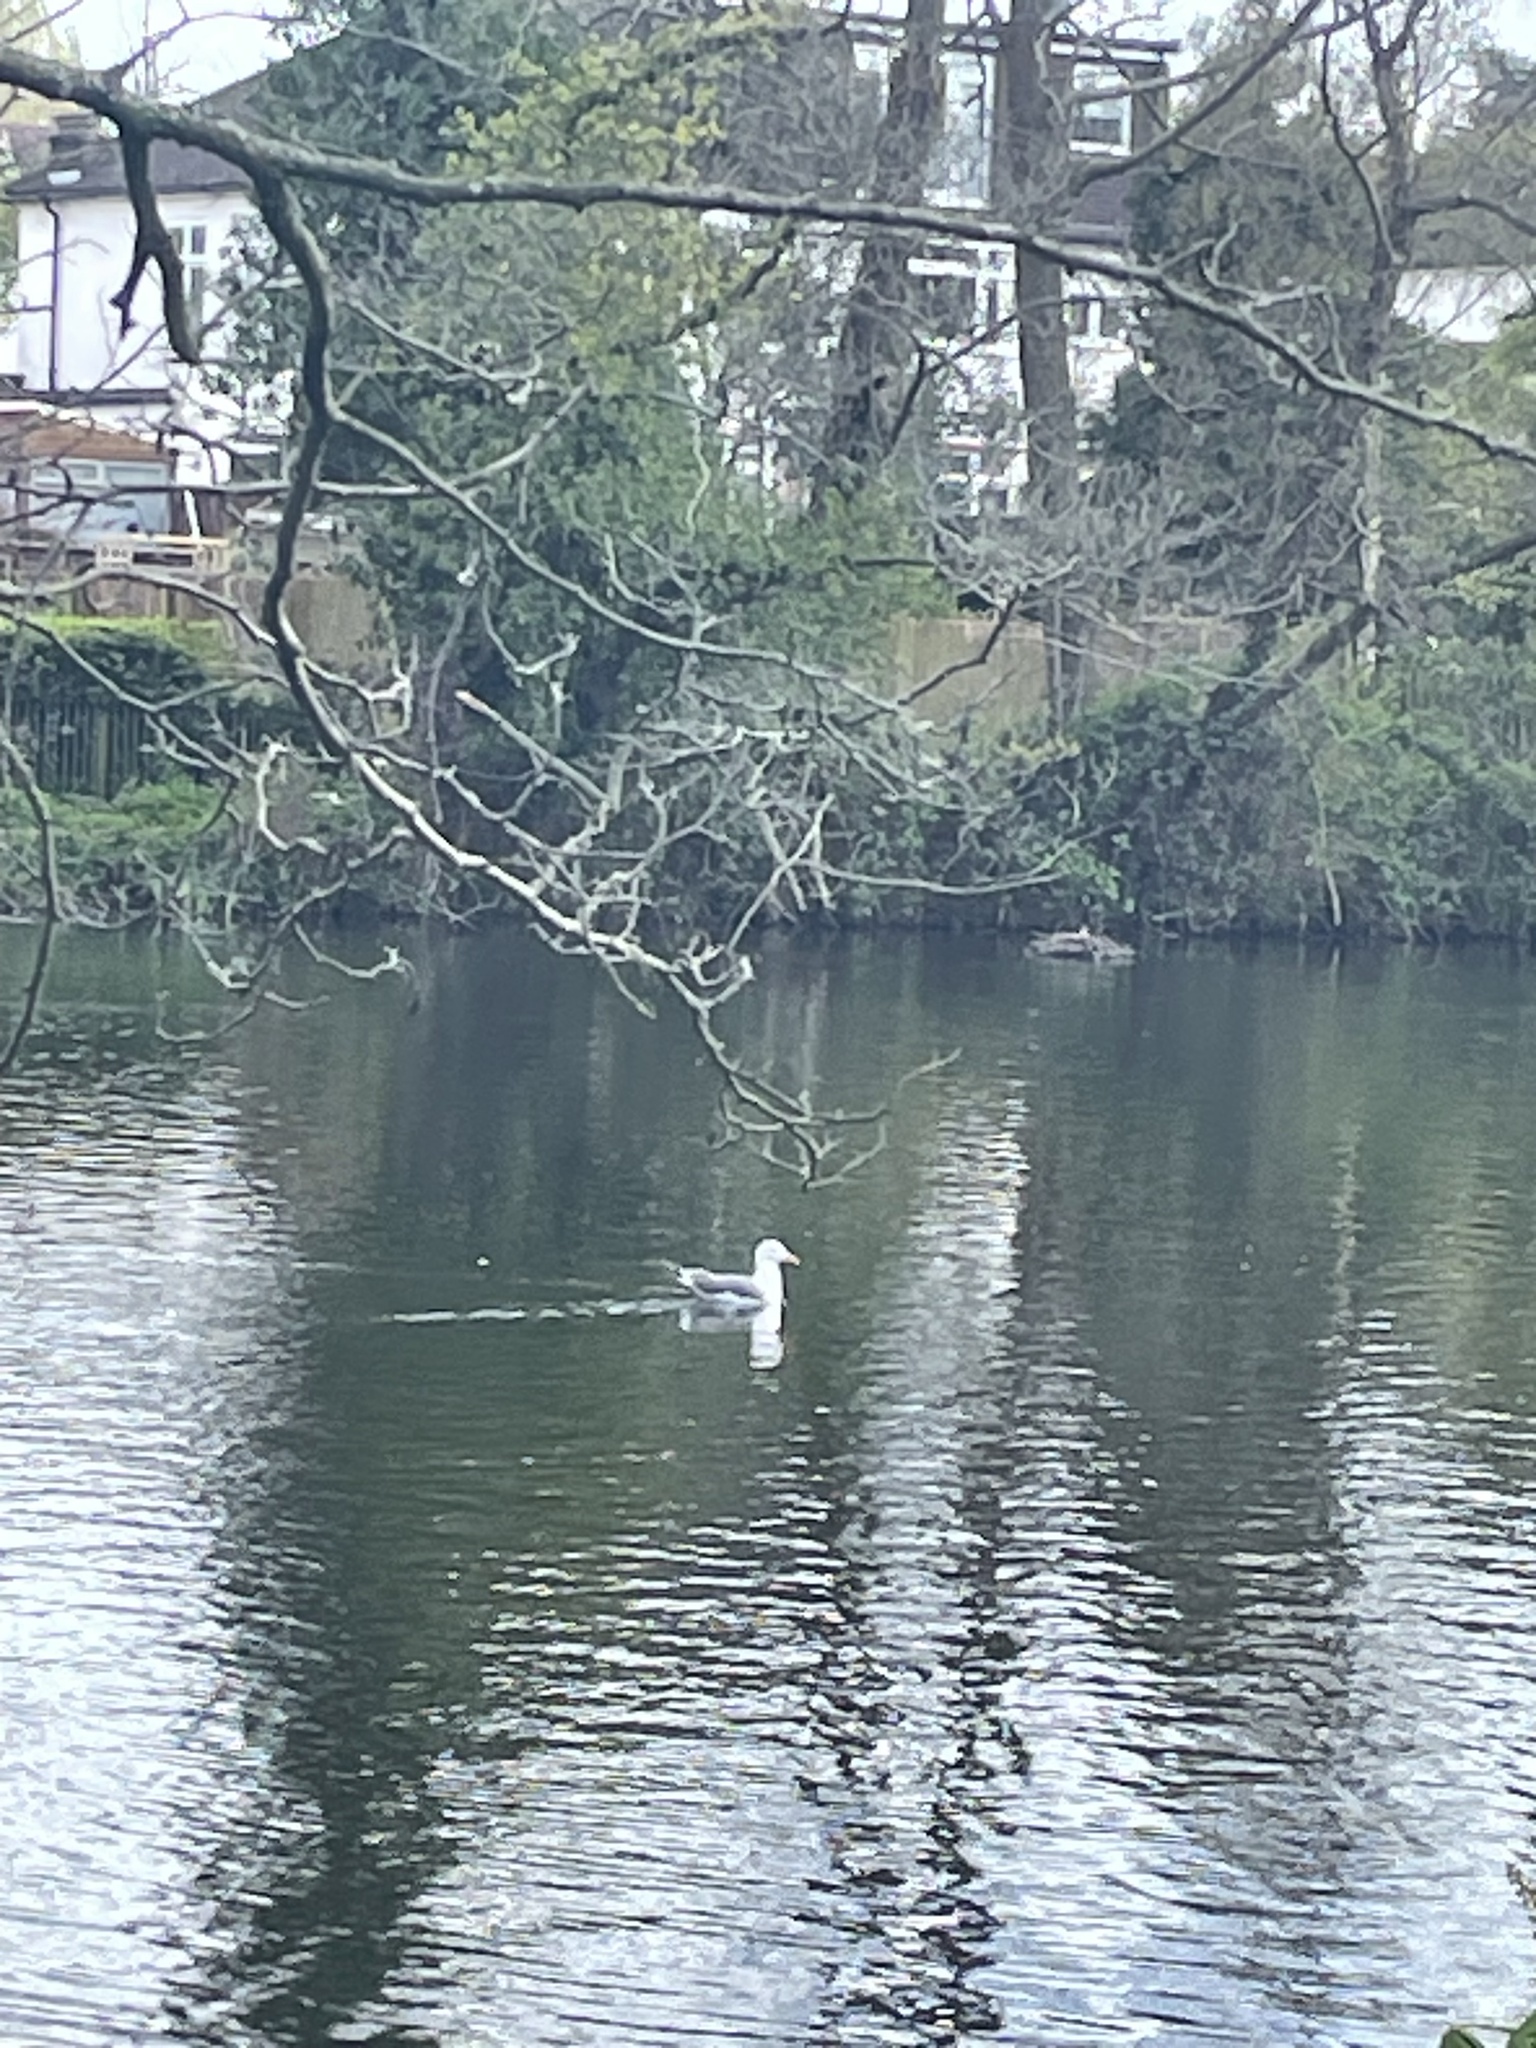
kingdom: Animalia
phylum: Chordata
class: Aves
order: Charadriiformes
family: Laridae
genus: Larus
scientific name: Larus fuscus
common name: Lesser black-backed gull
